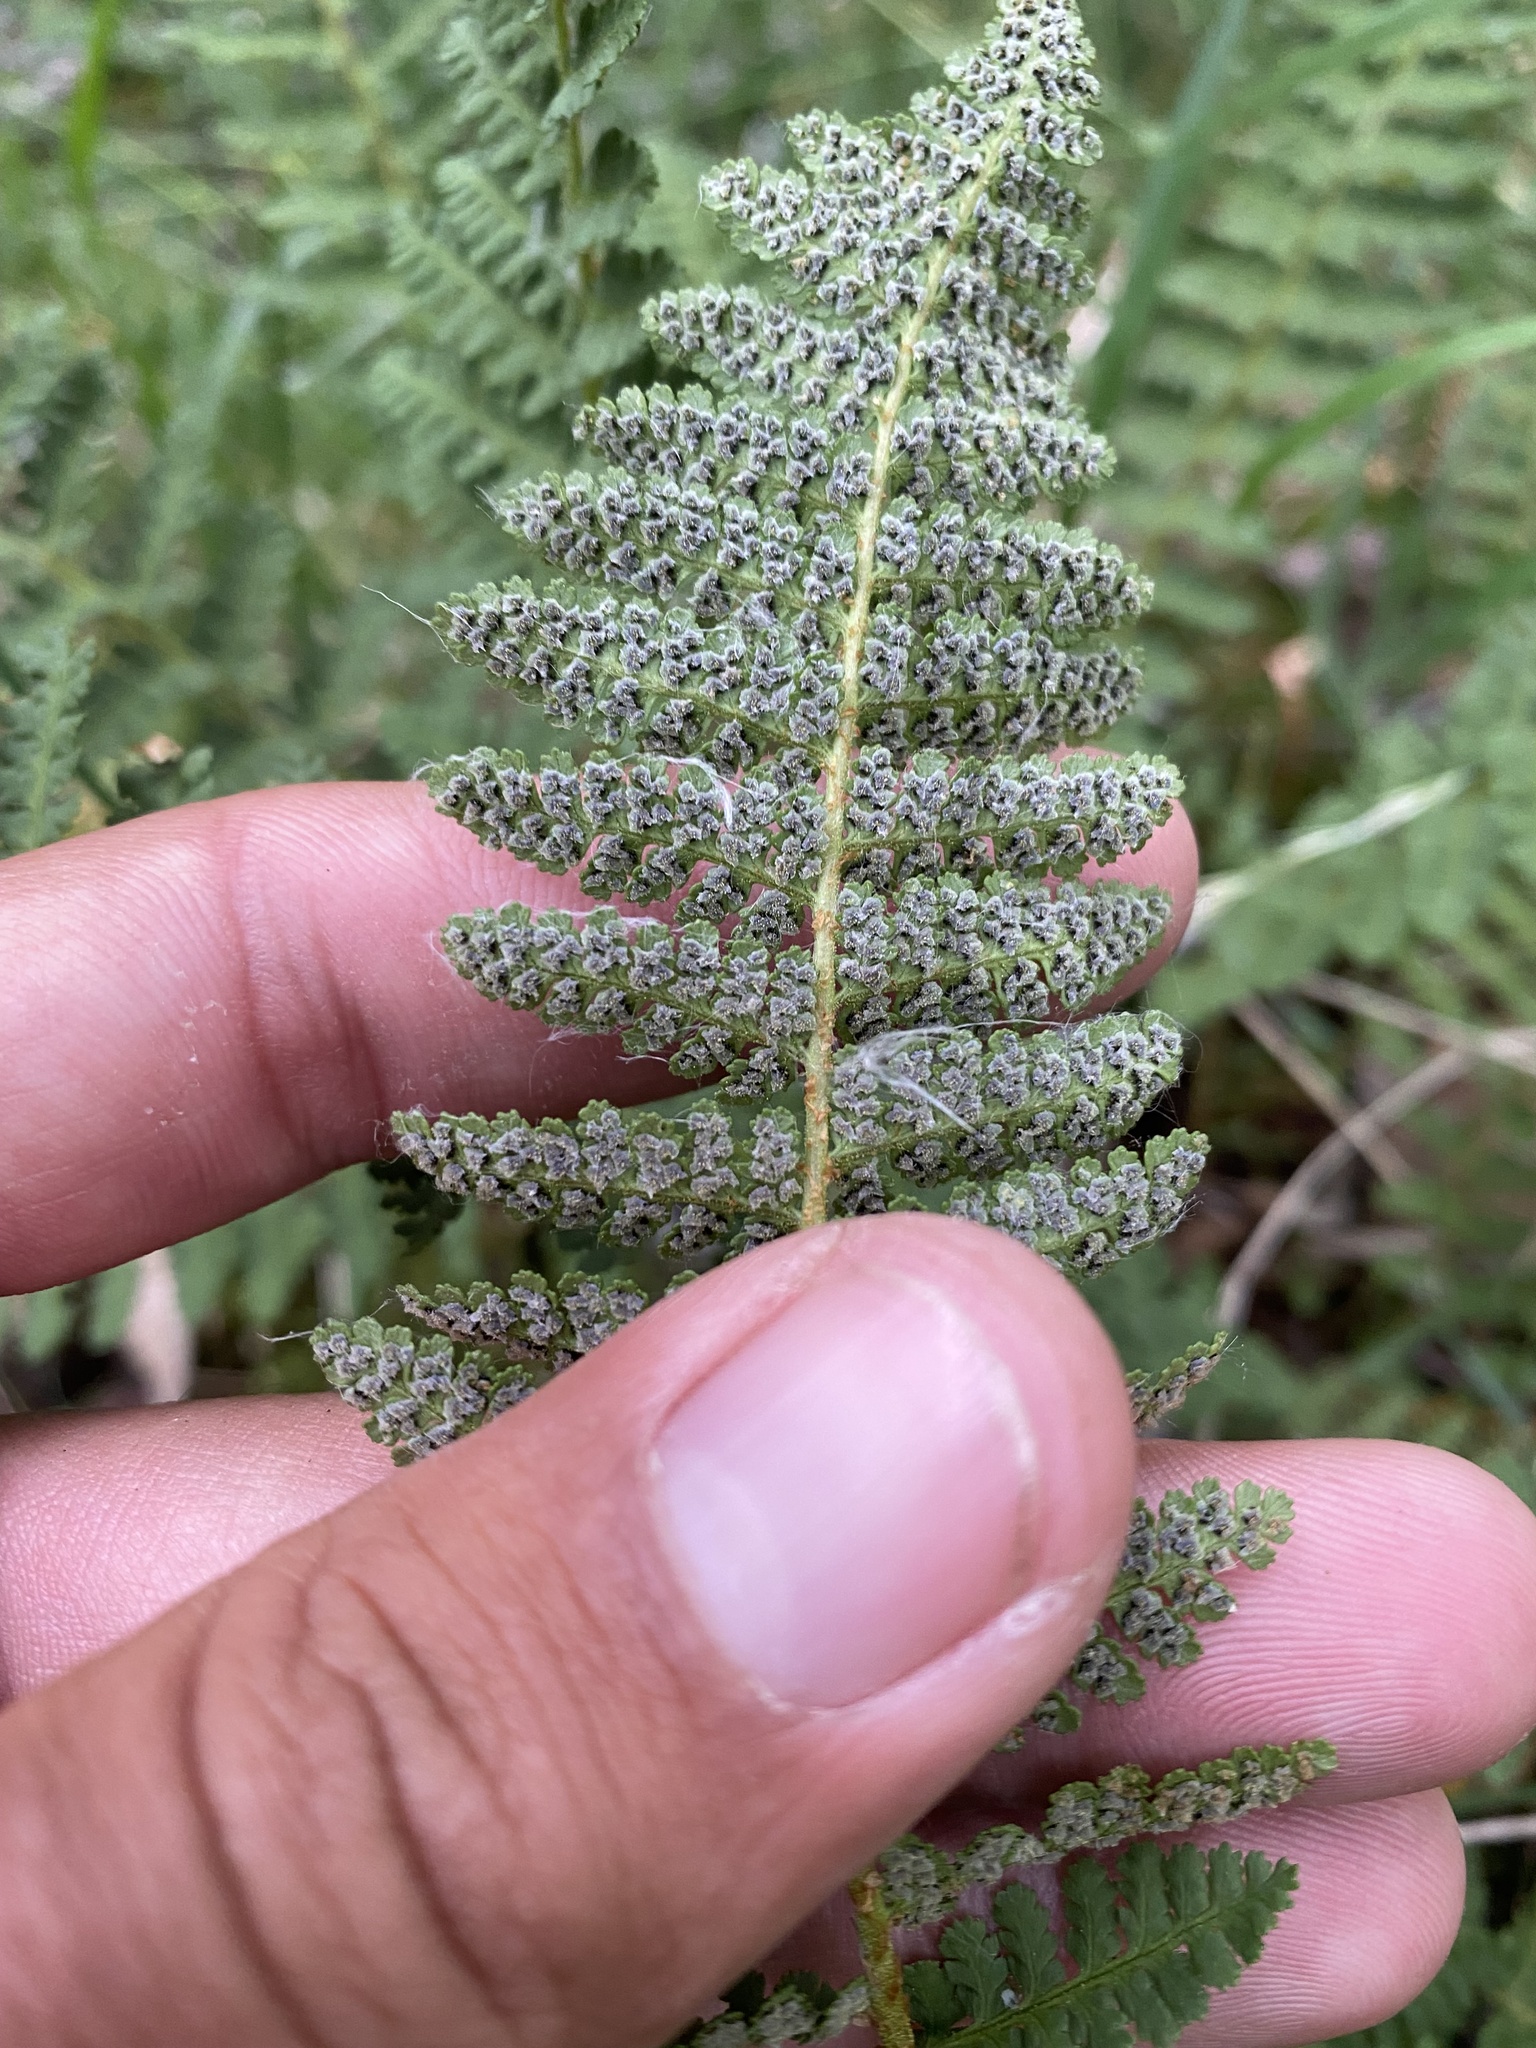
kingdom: Plantae
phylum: Tracheophyta
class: Polypodiopsida
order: Polypodiales
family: Dryopteridaceae
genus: Dryopteris
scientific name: Dryopteris fragrans
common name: Fragrant wood fern
